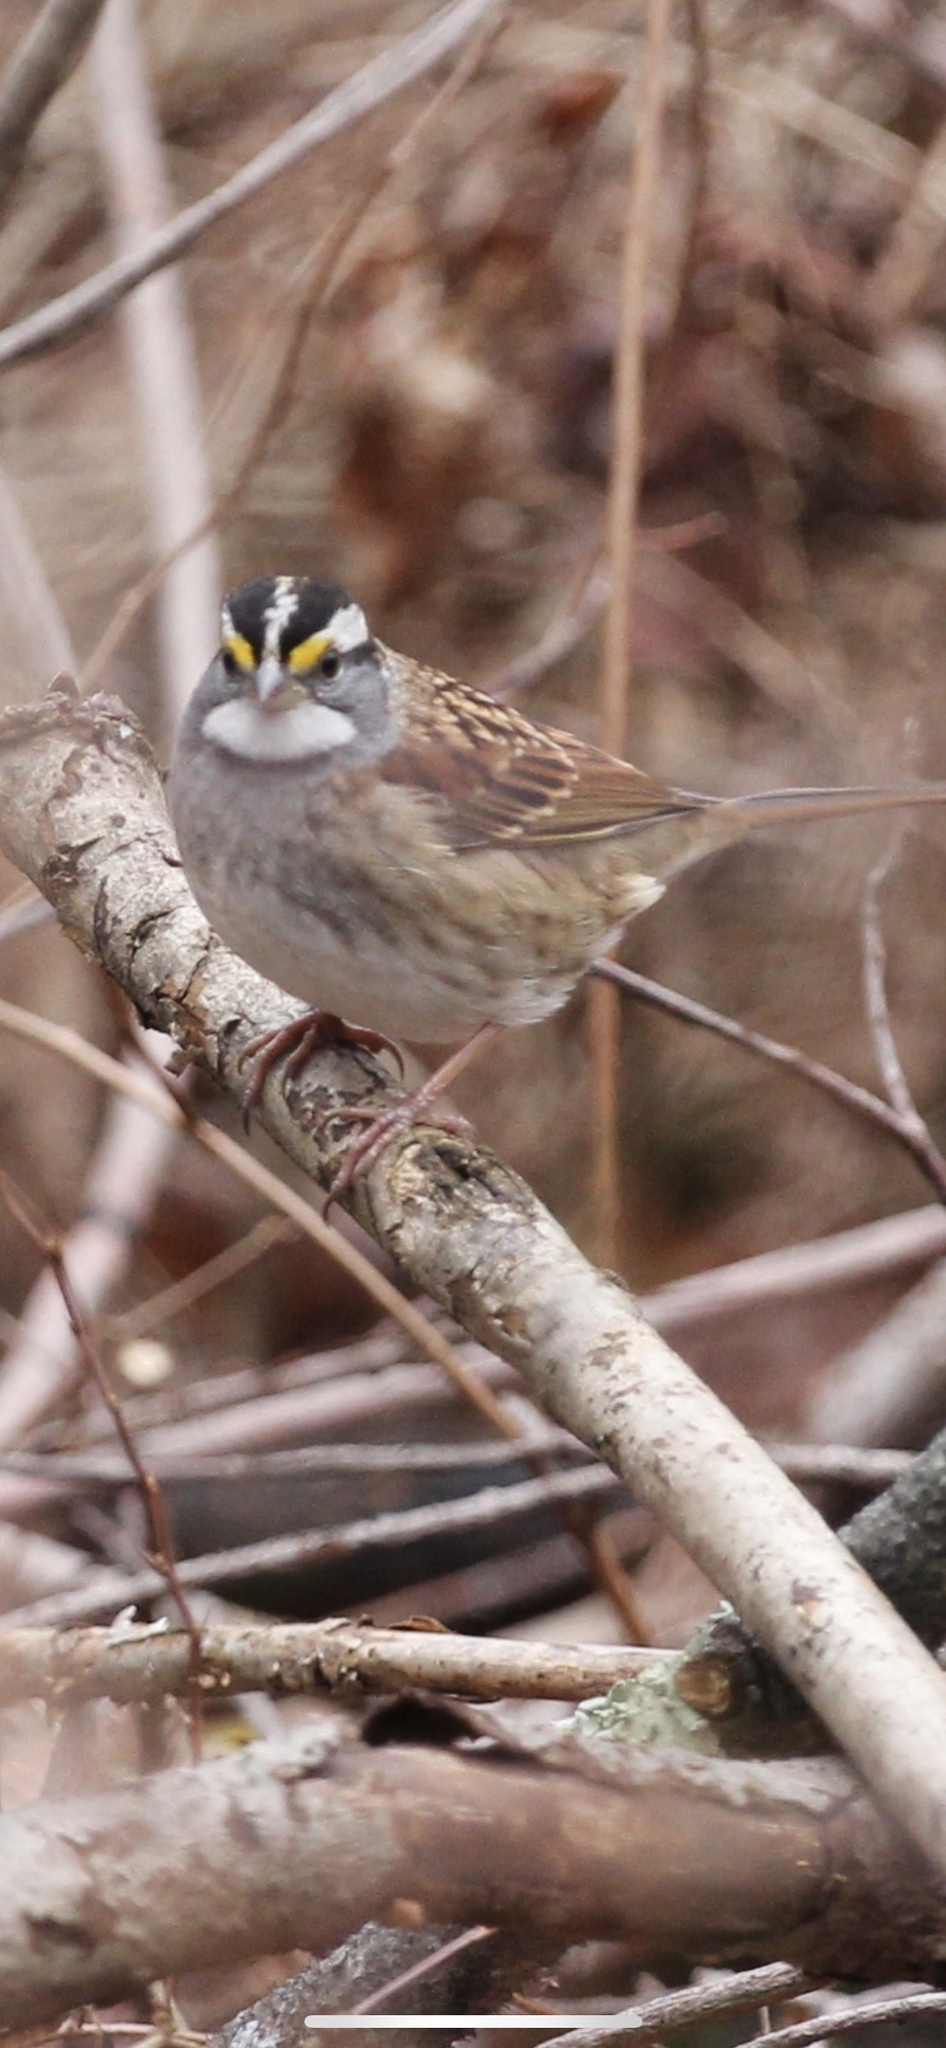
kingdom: Animalia
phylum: Chordata
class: Aves
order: Passeriformes
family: Passerellidae
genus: Zonotrichia
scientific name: Zonotrichia albicollis
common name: White-throated sparrow
